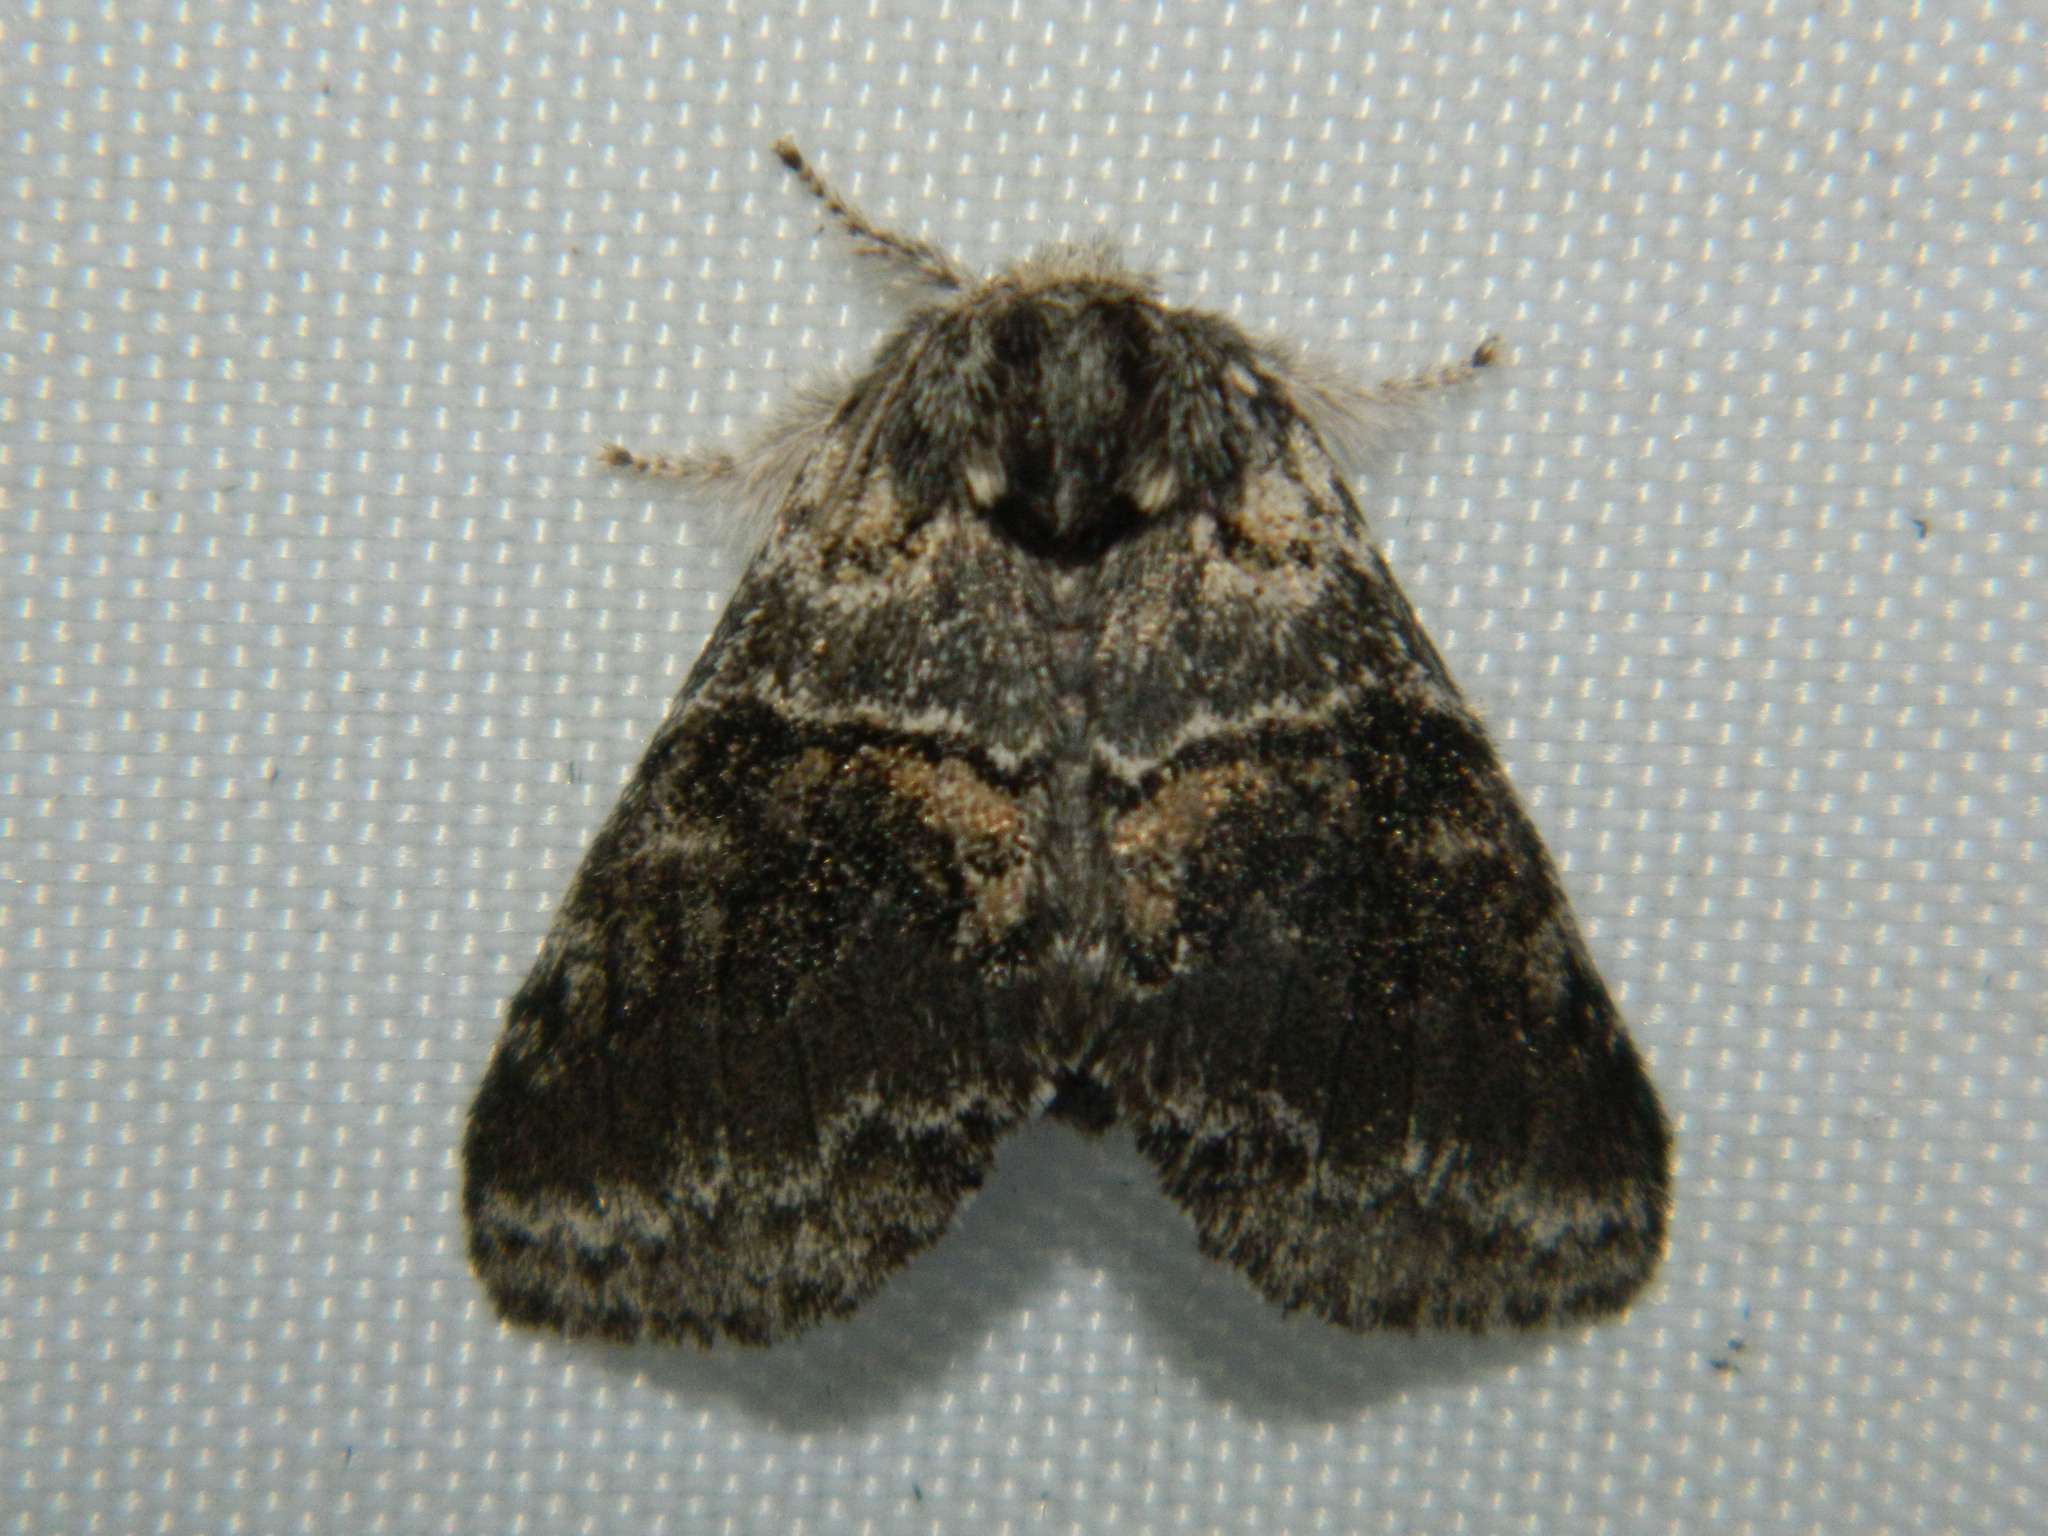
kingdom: Animalia
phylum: Arthropoda
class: Insecta
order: Lepidoptera
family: Notodontidae
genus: Gluphisia
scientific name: Gluphisia septentrionis
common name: Common gluphisia
